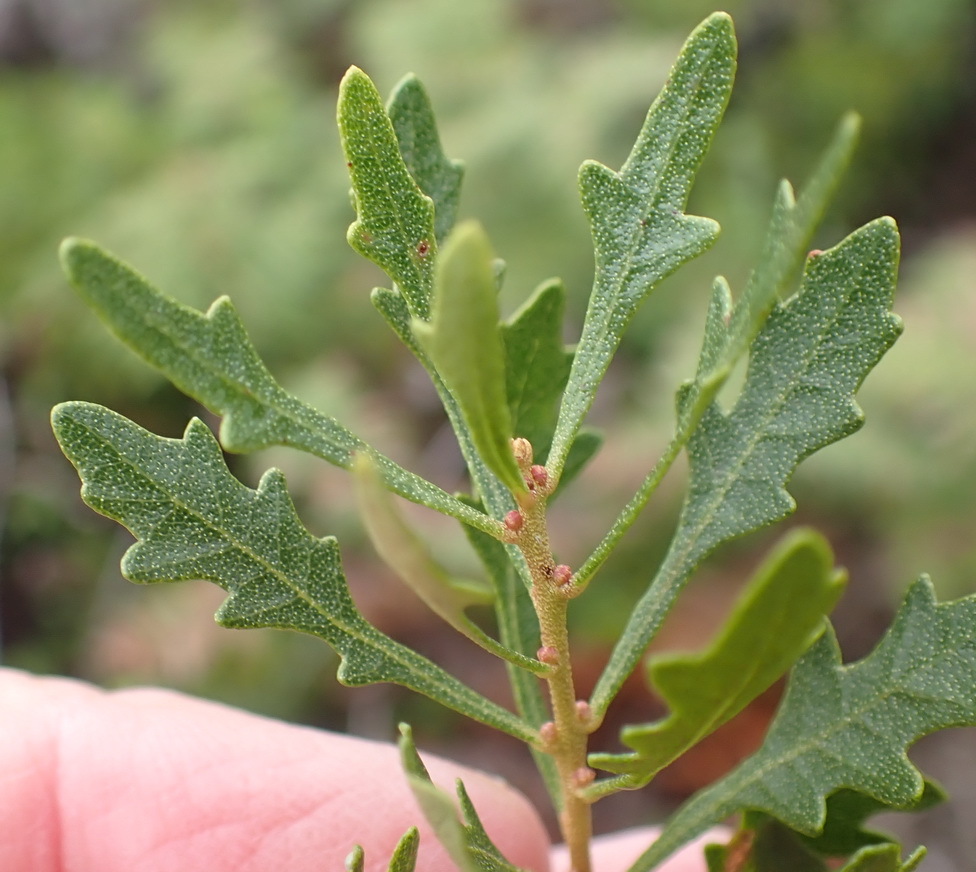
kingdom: Plantae
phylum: Tracheophyta
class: Magnoliopsida
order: Fagales
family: Myricaceae
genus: Morella
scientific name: Morella quercifolia
